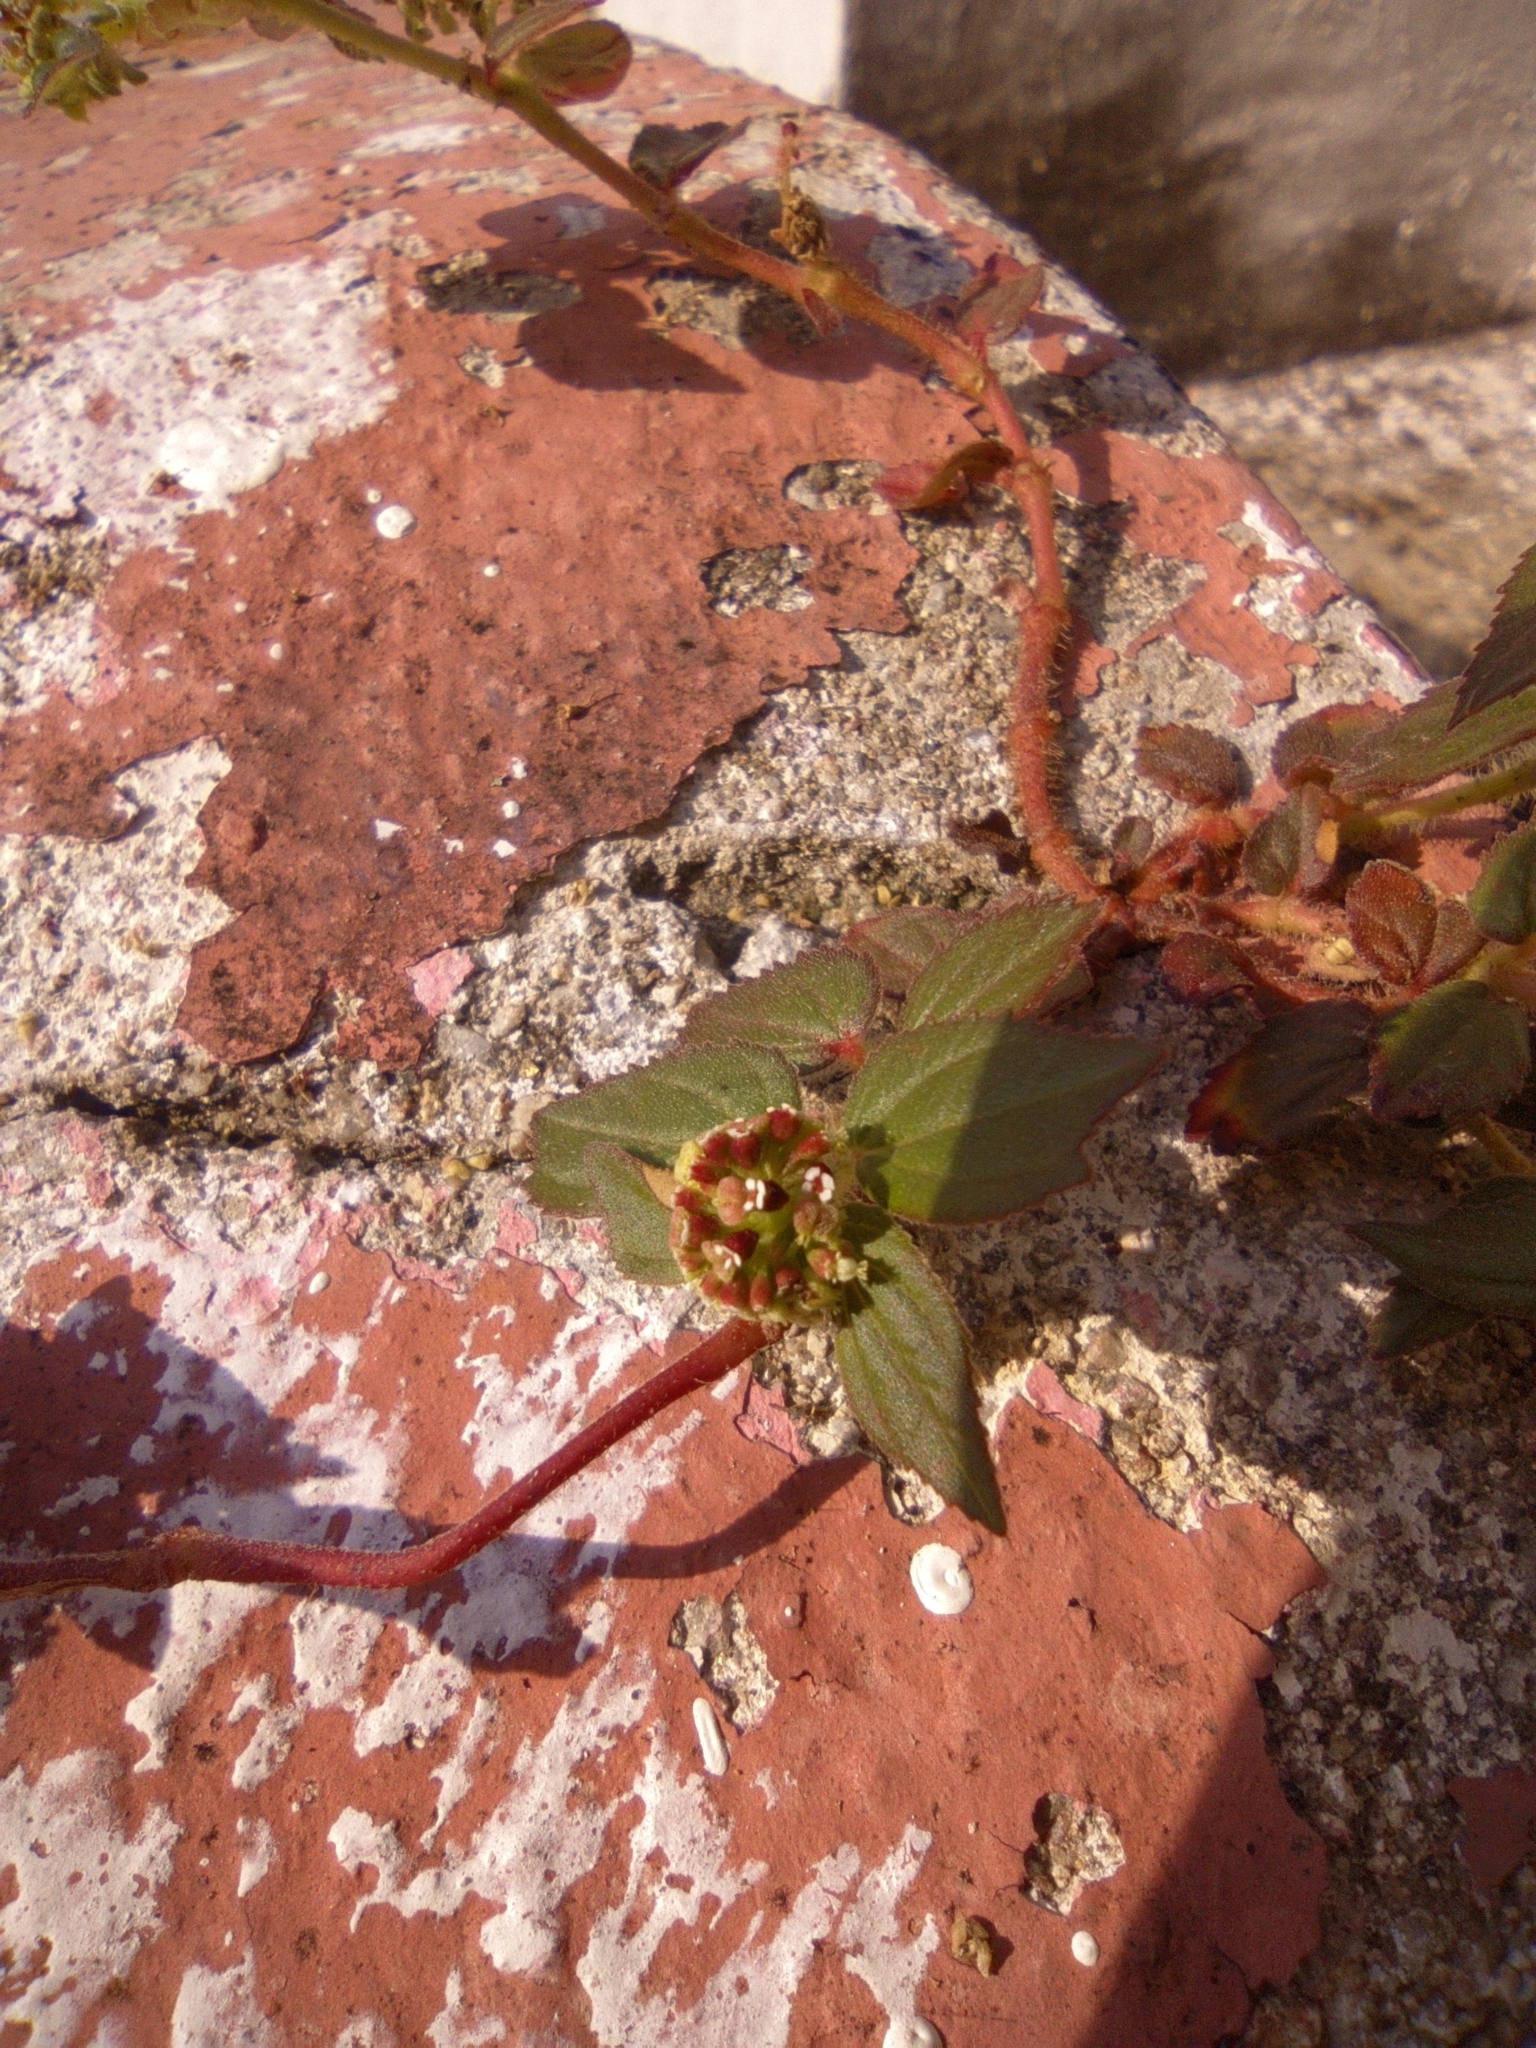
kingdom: Plantae
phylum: Tracheophyta
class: Magnoliopsida
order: Malpighiales
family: Euphorbiaceae
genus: Euphorbia
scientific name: Euphorbia hirta
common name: Pillpod sandmat
